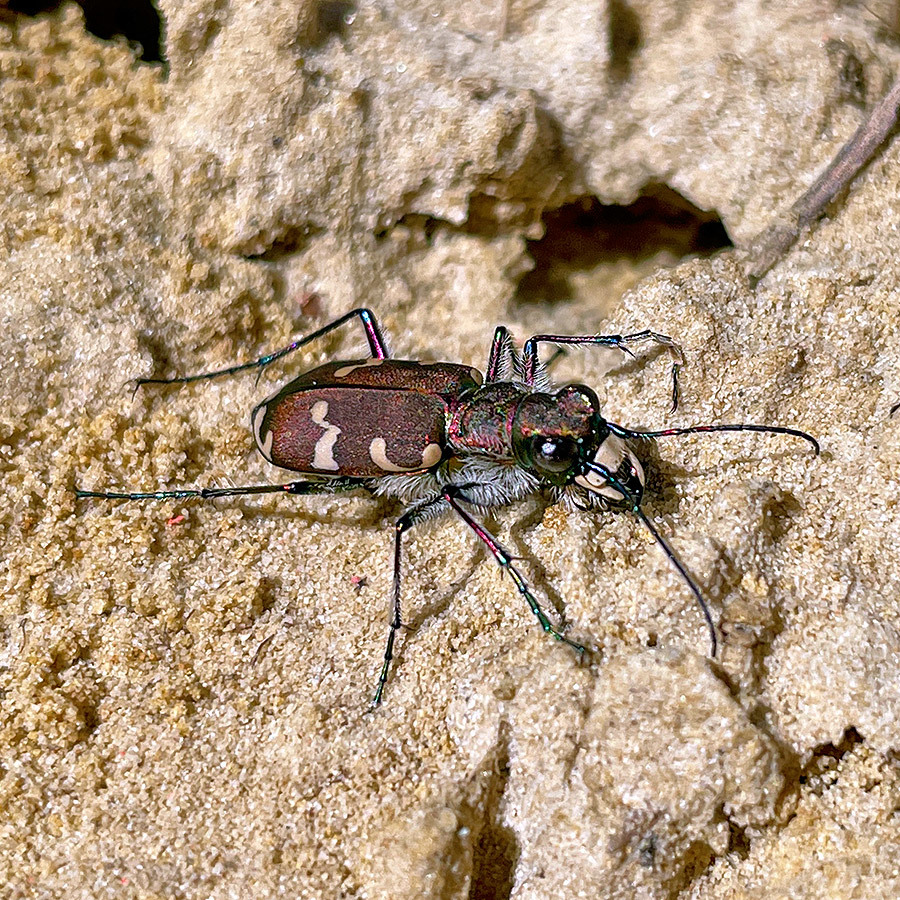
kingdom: Animalia
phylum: Arthropoda
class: Insecta
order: Coleoptera
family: Carabidae
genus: Cicindela
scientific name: Cicindela hybrida
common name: Northern dune tiger beetle
